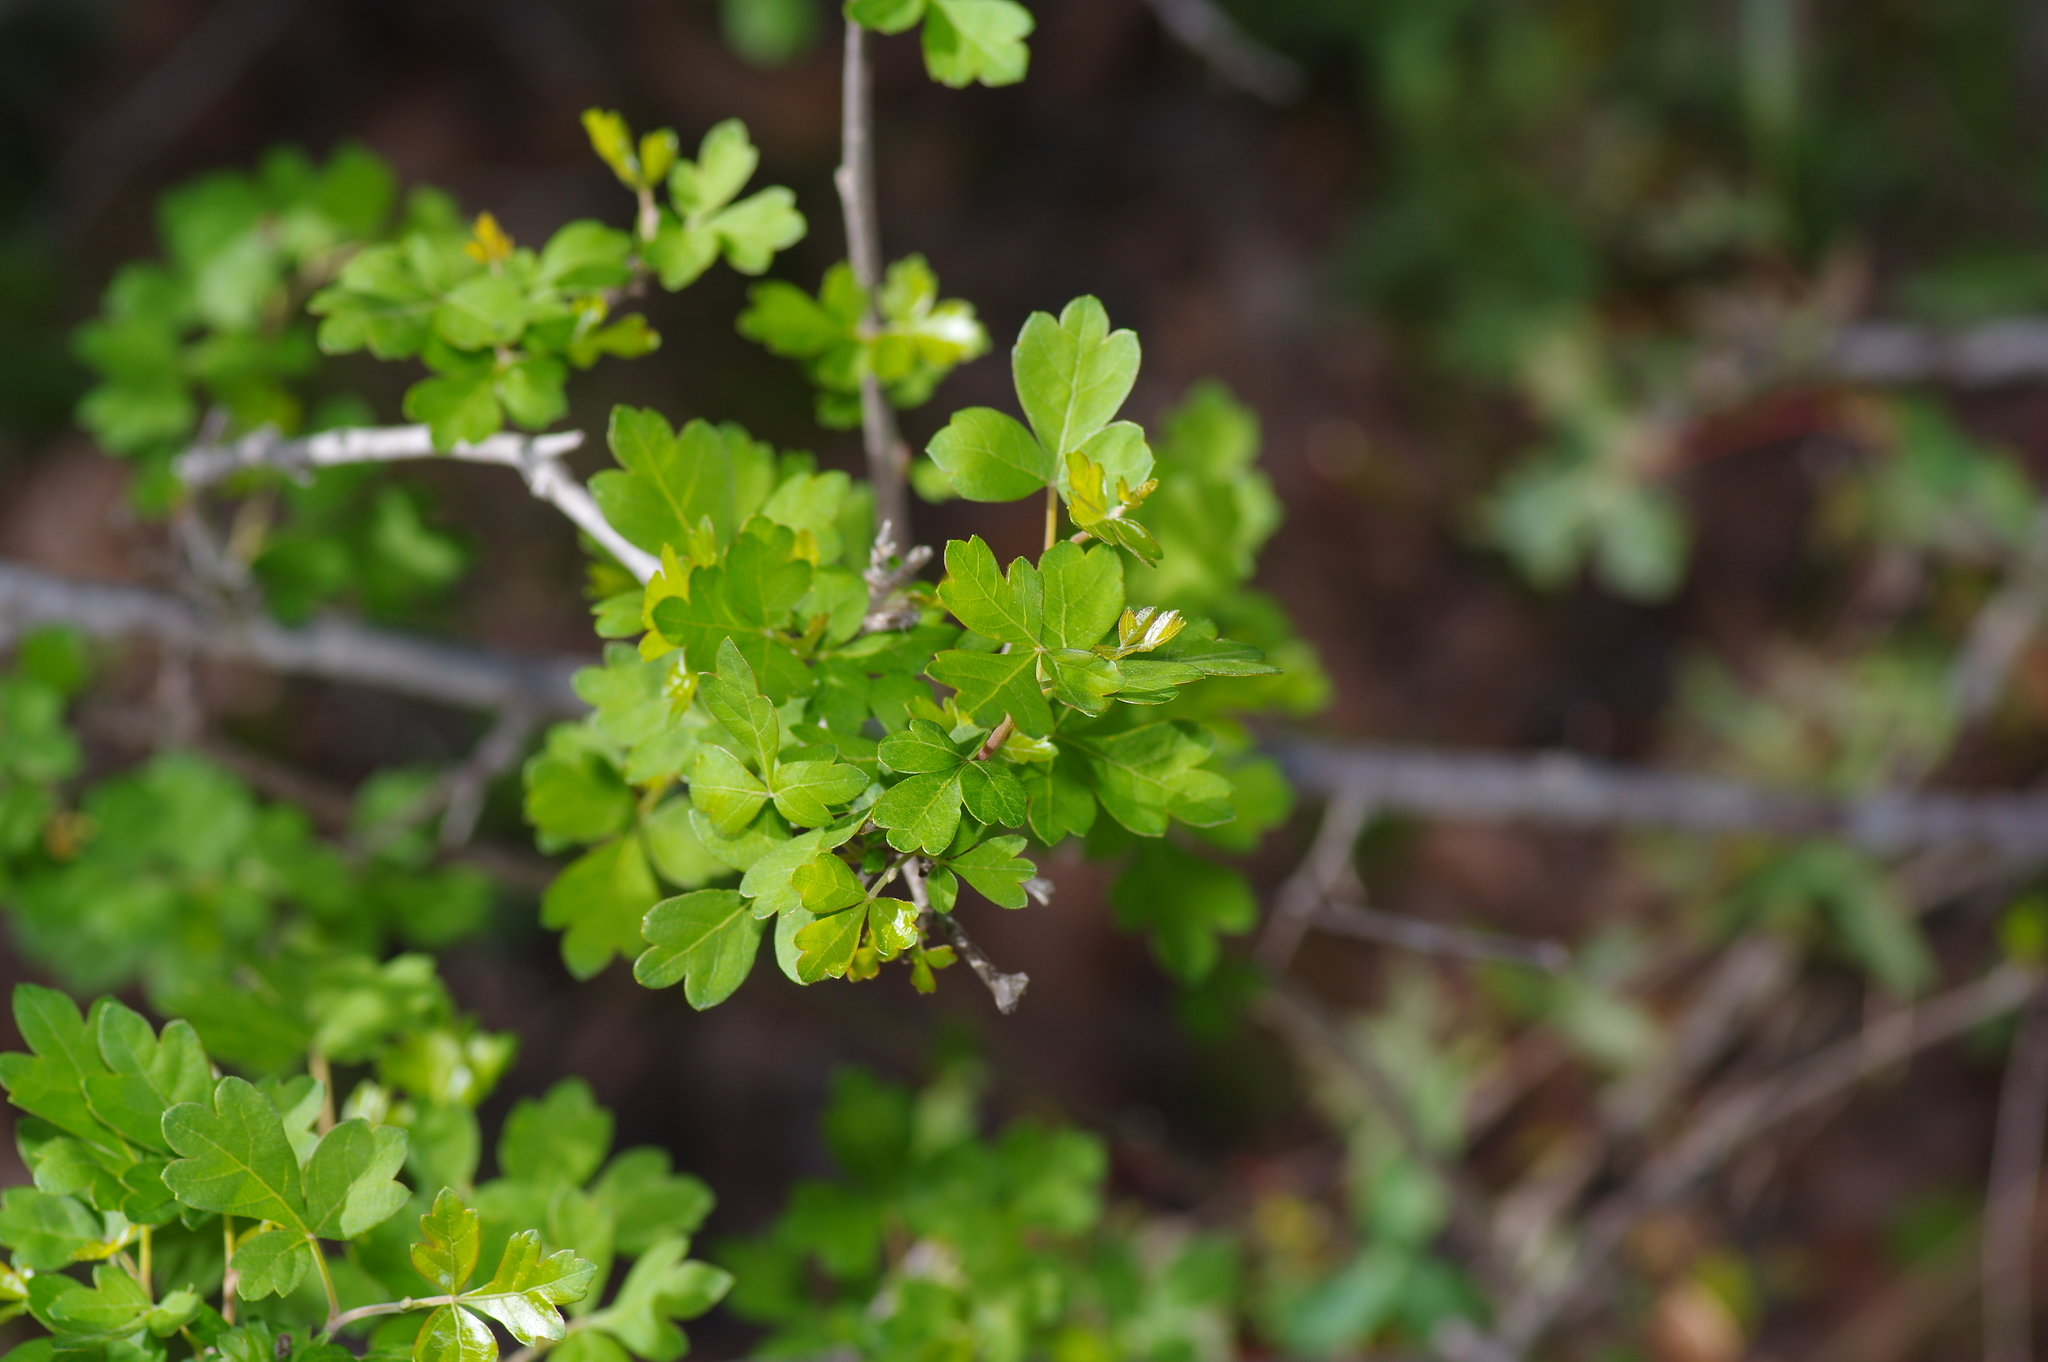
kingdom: Plantae
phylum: Tracheophyta
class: Magnoliopsida
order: Sapindales
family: Anacardiaceae
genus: Rhus
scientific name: Rhus aromatica
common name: Aromatic sumac
